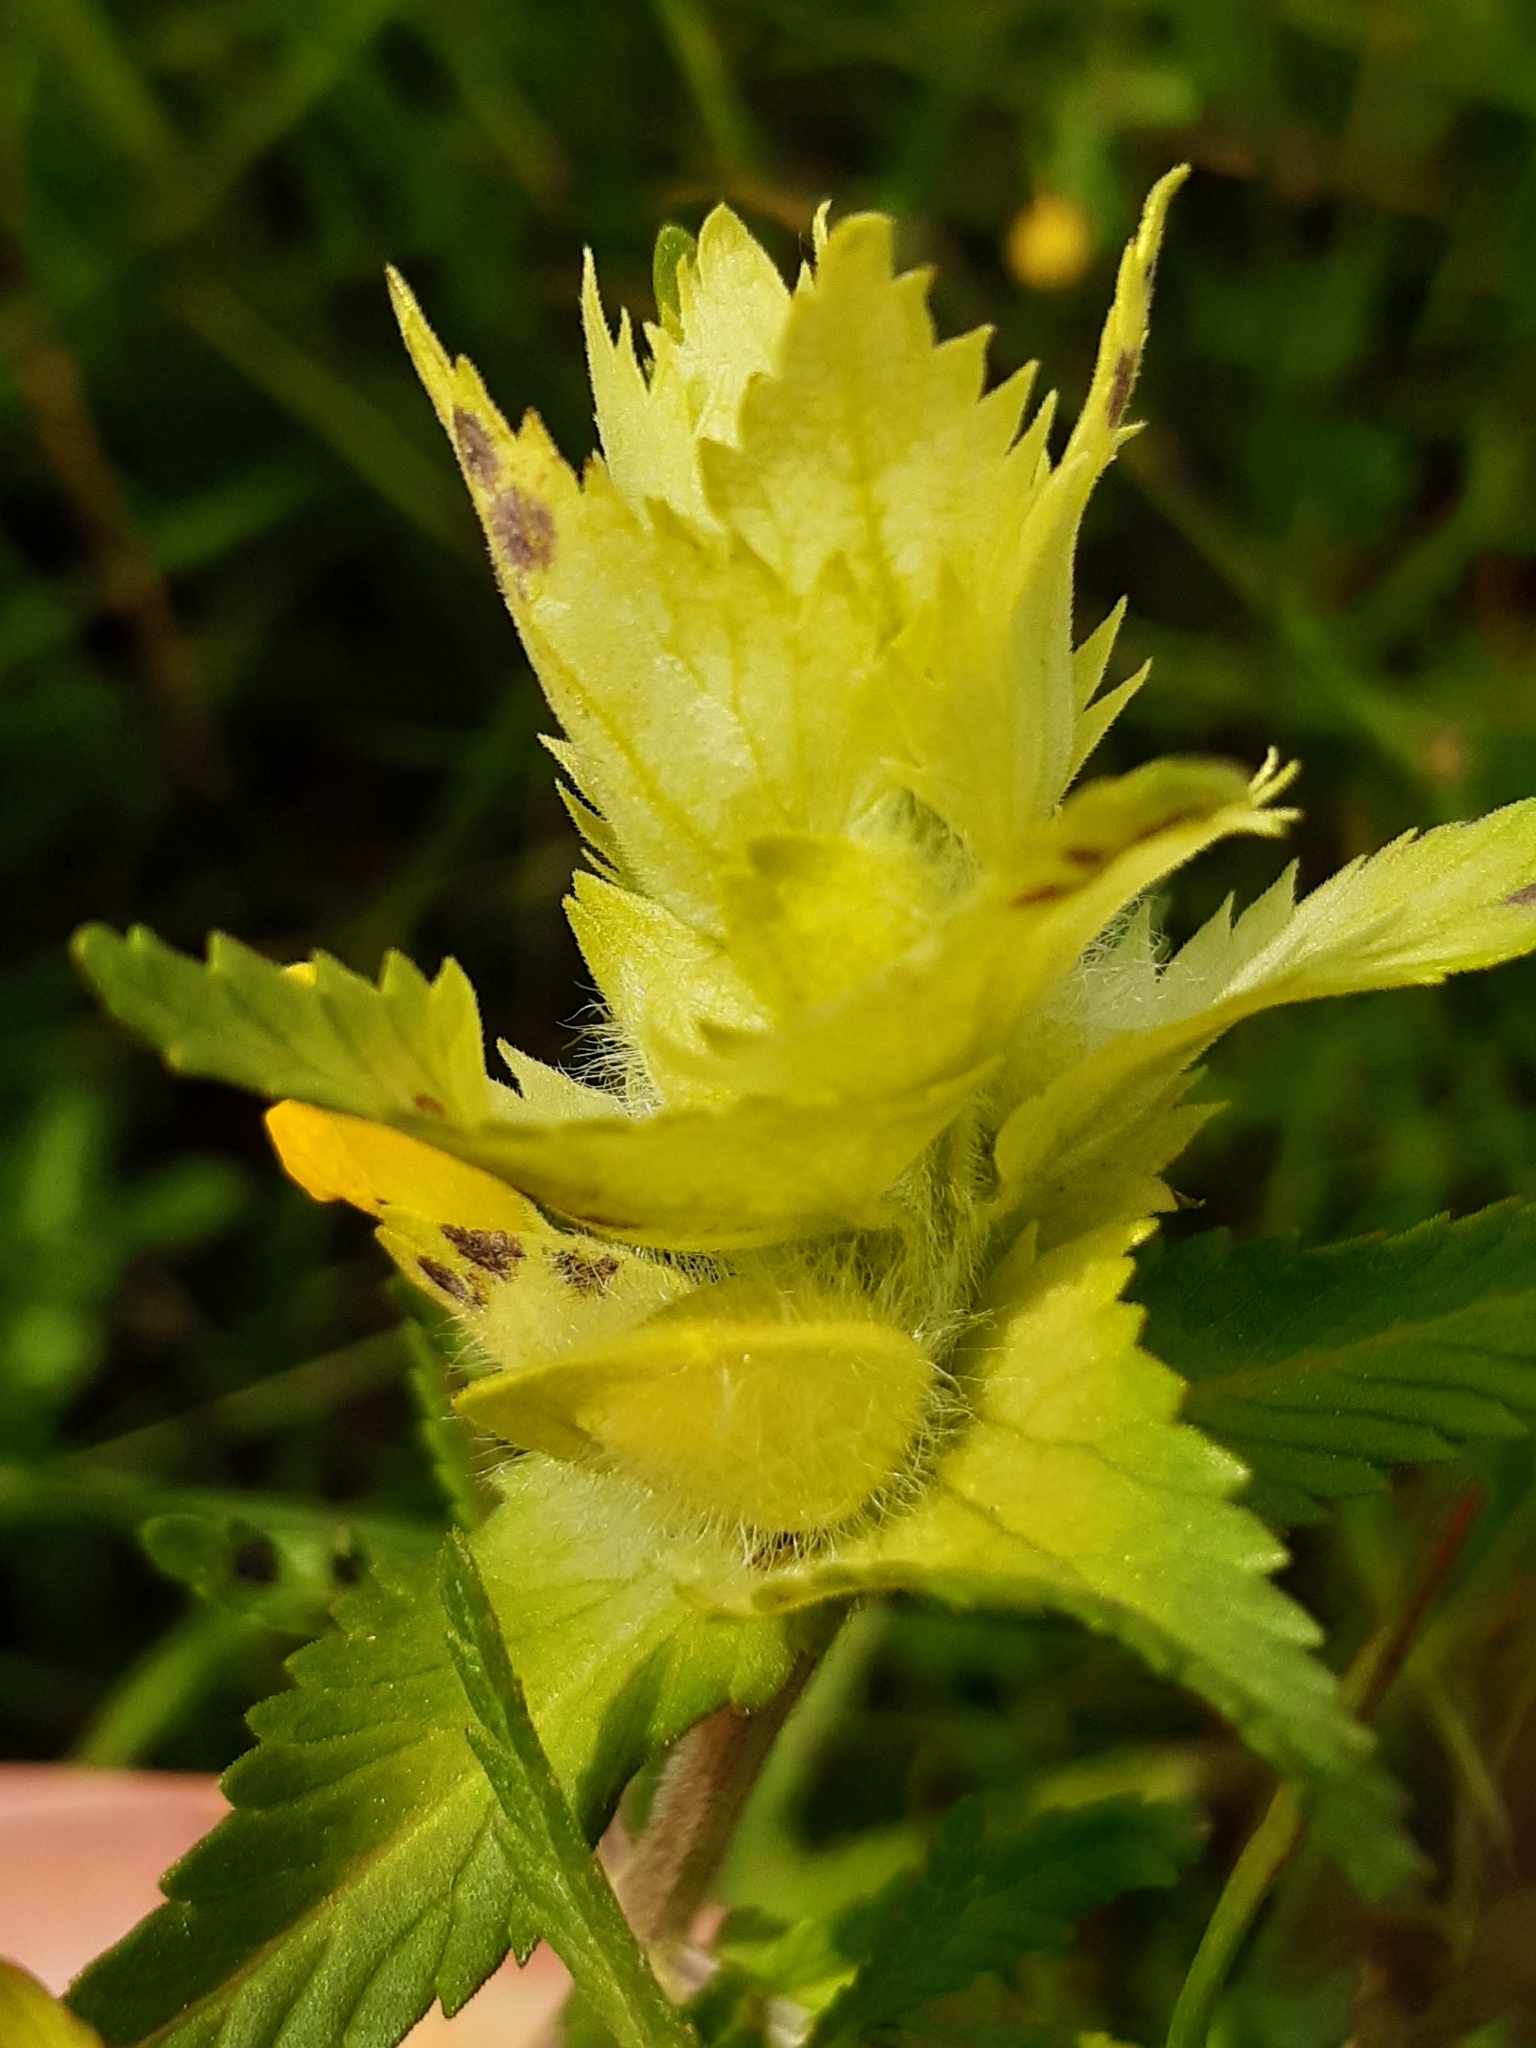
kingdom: Plantae
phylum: Tracheophyta
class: Magnoliopsida
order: Lamiales
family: Orobanchaceae
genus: Rhinanthus
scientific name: Rhinanthus alectorolophus
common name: Greater yellow-rattle
